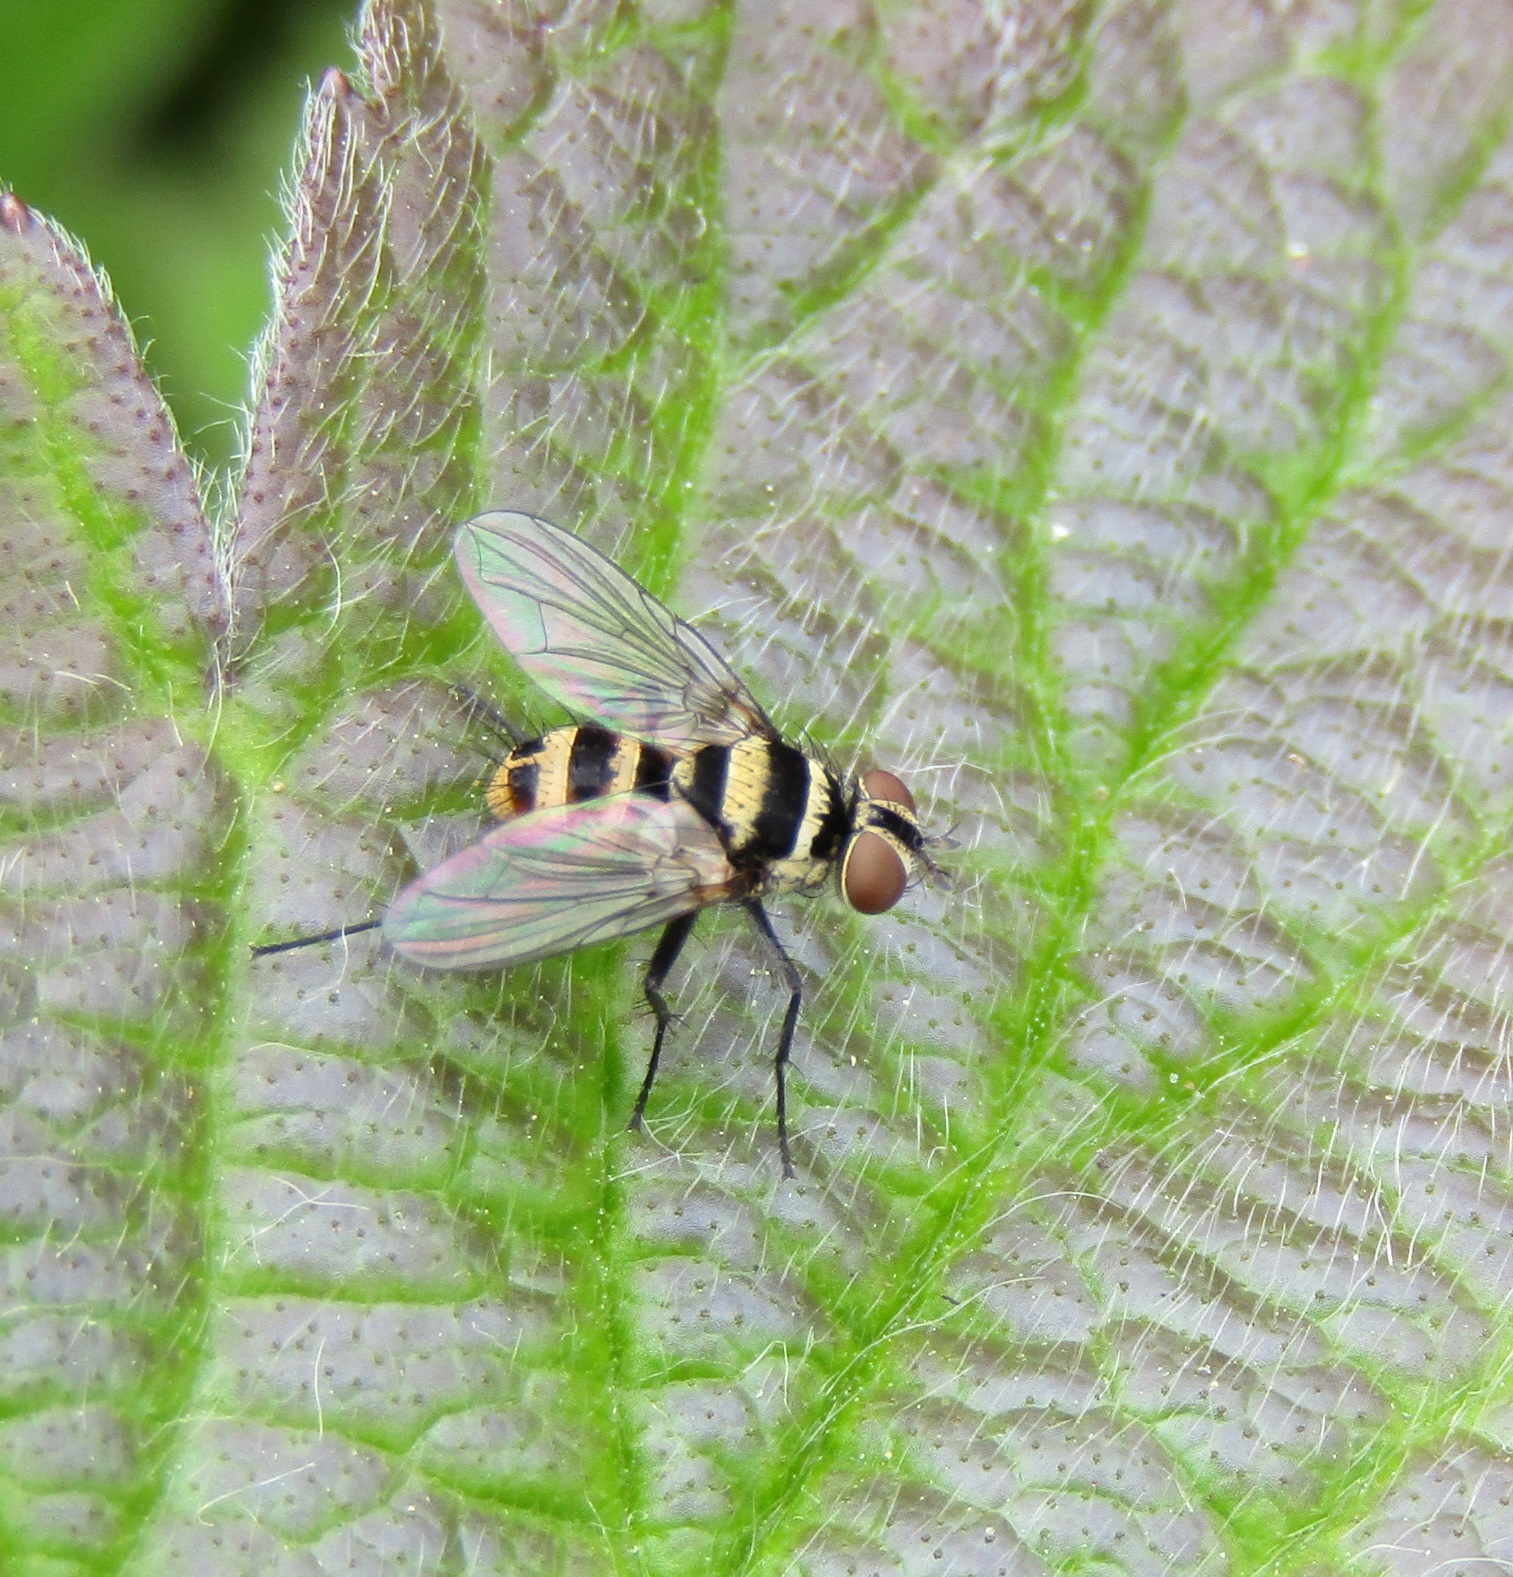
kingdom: Animalia
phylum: Arthropoda
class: Insecta
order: Diptera
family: Tachinidae
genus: Trigonospila
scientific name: Trigonospila brevifacies
